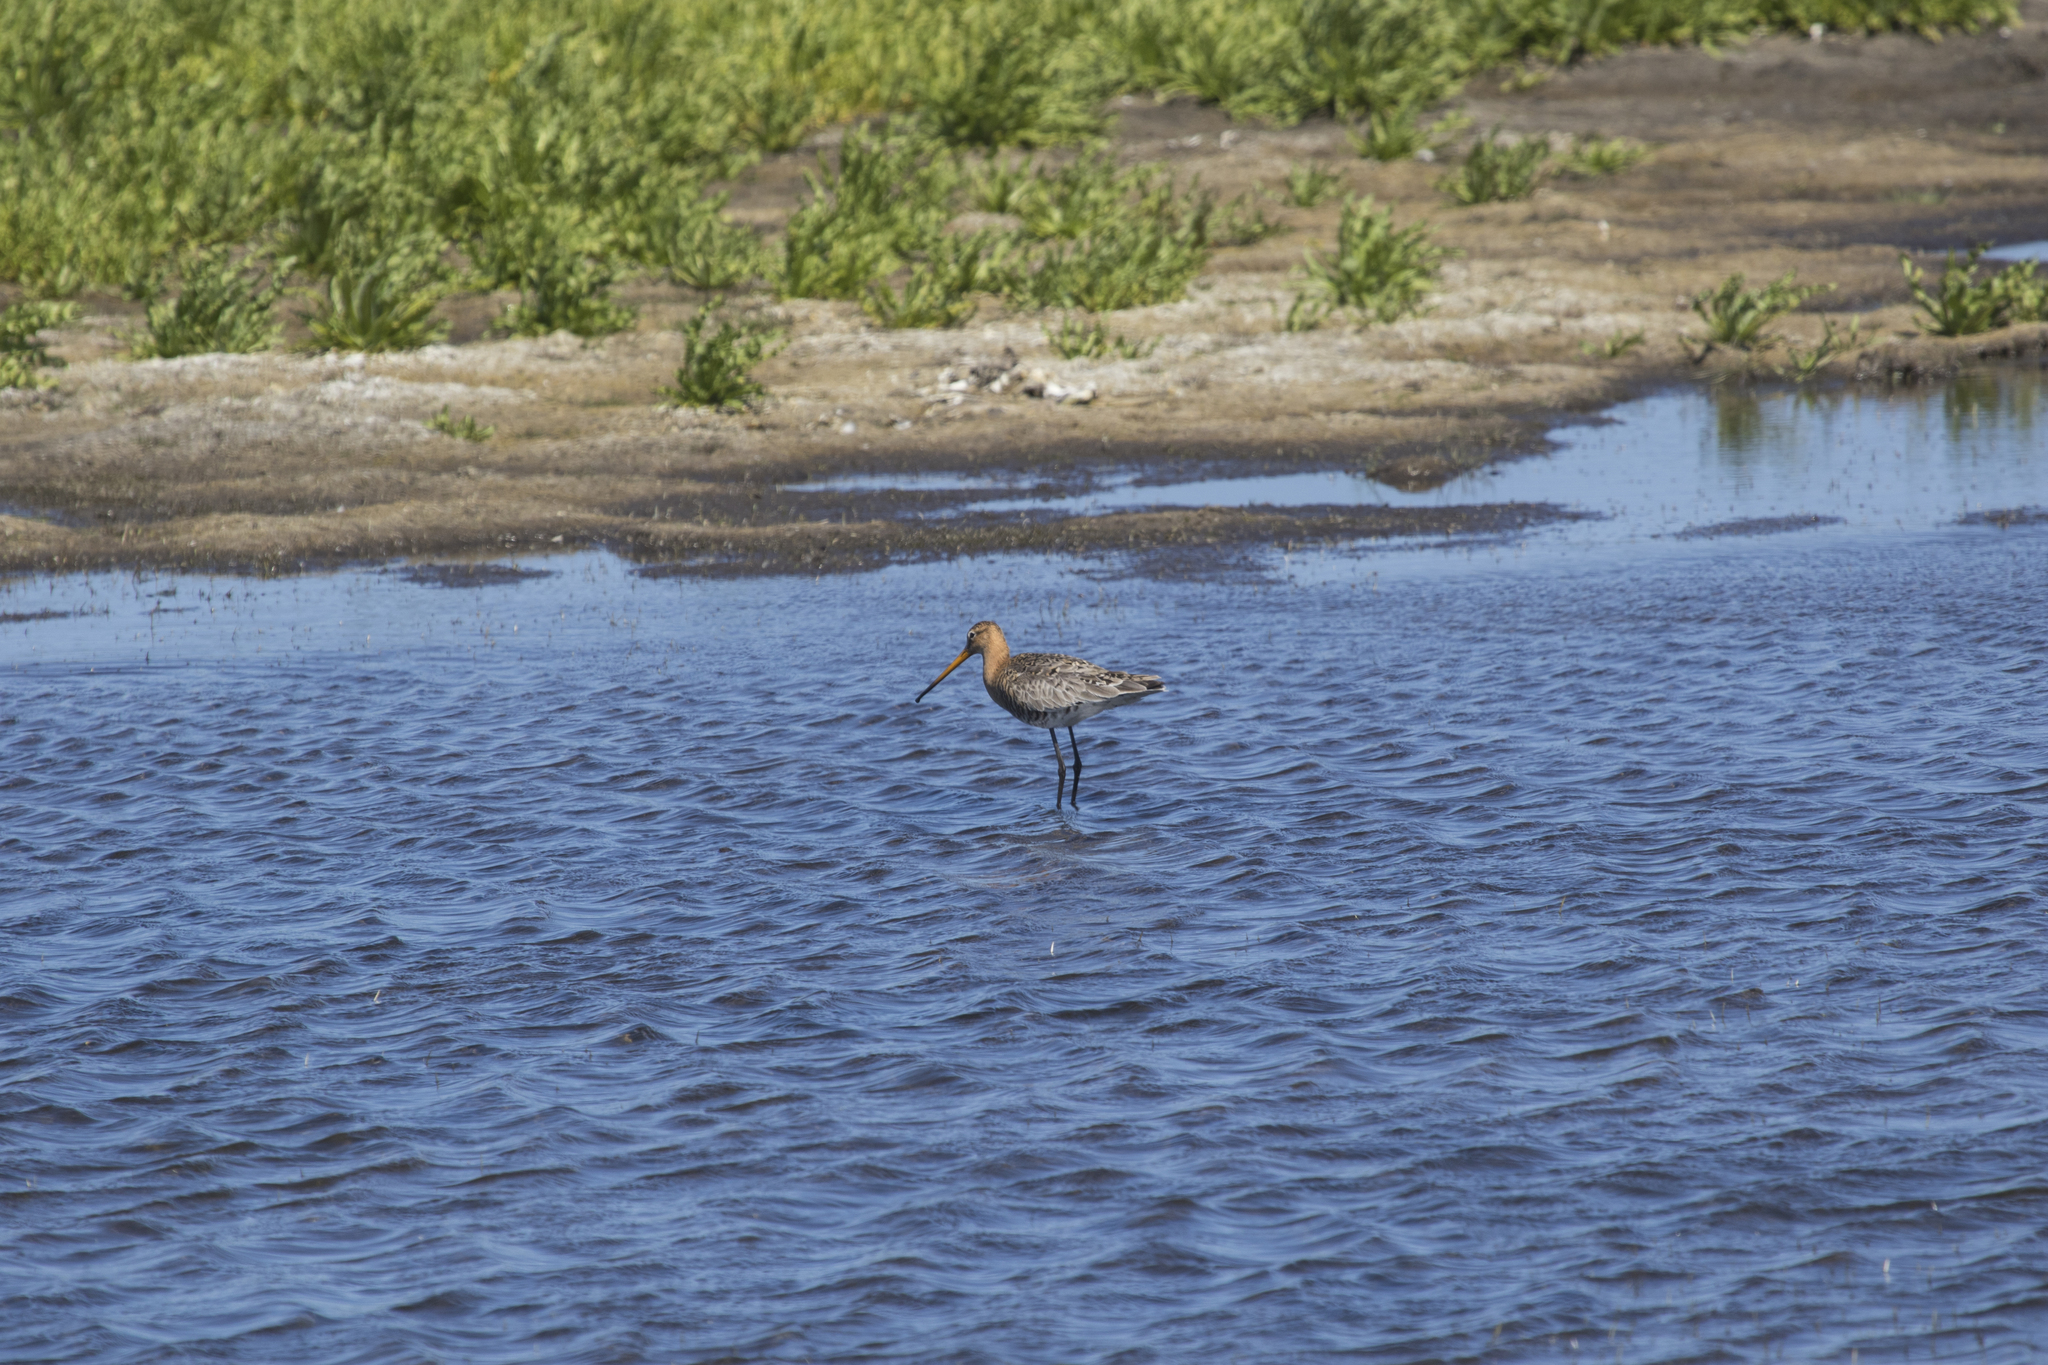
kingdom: Animalia
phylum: Chordata
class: Aves
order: Charadriiformes
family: Scolopacidae
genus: Limosa
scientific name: Limosa limosa
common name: Black-tailed godwit
